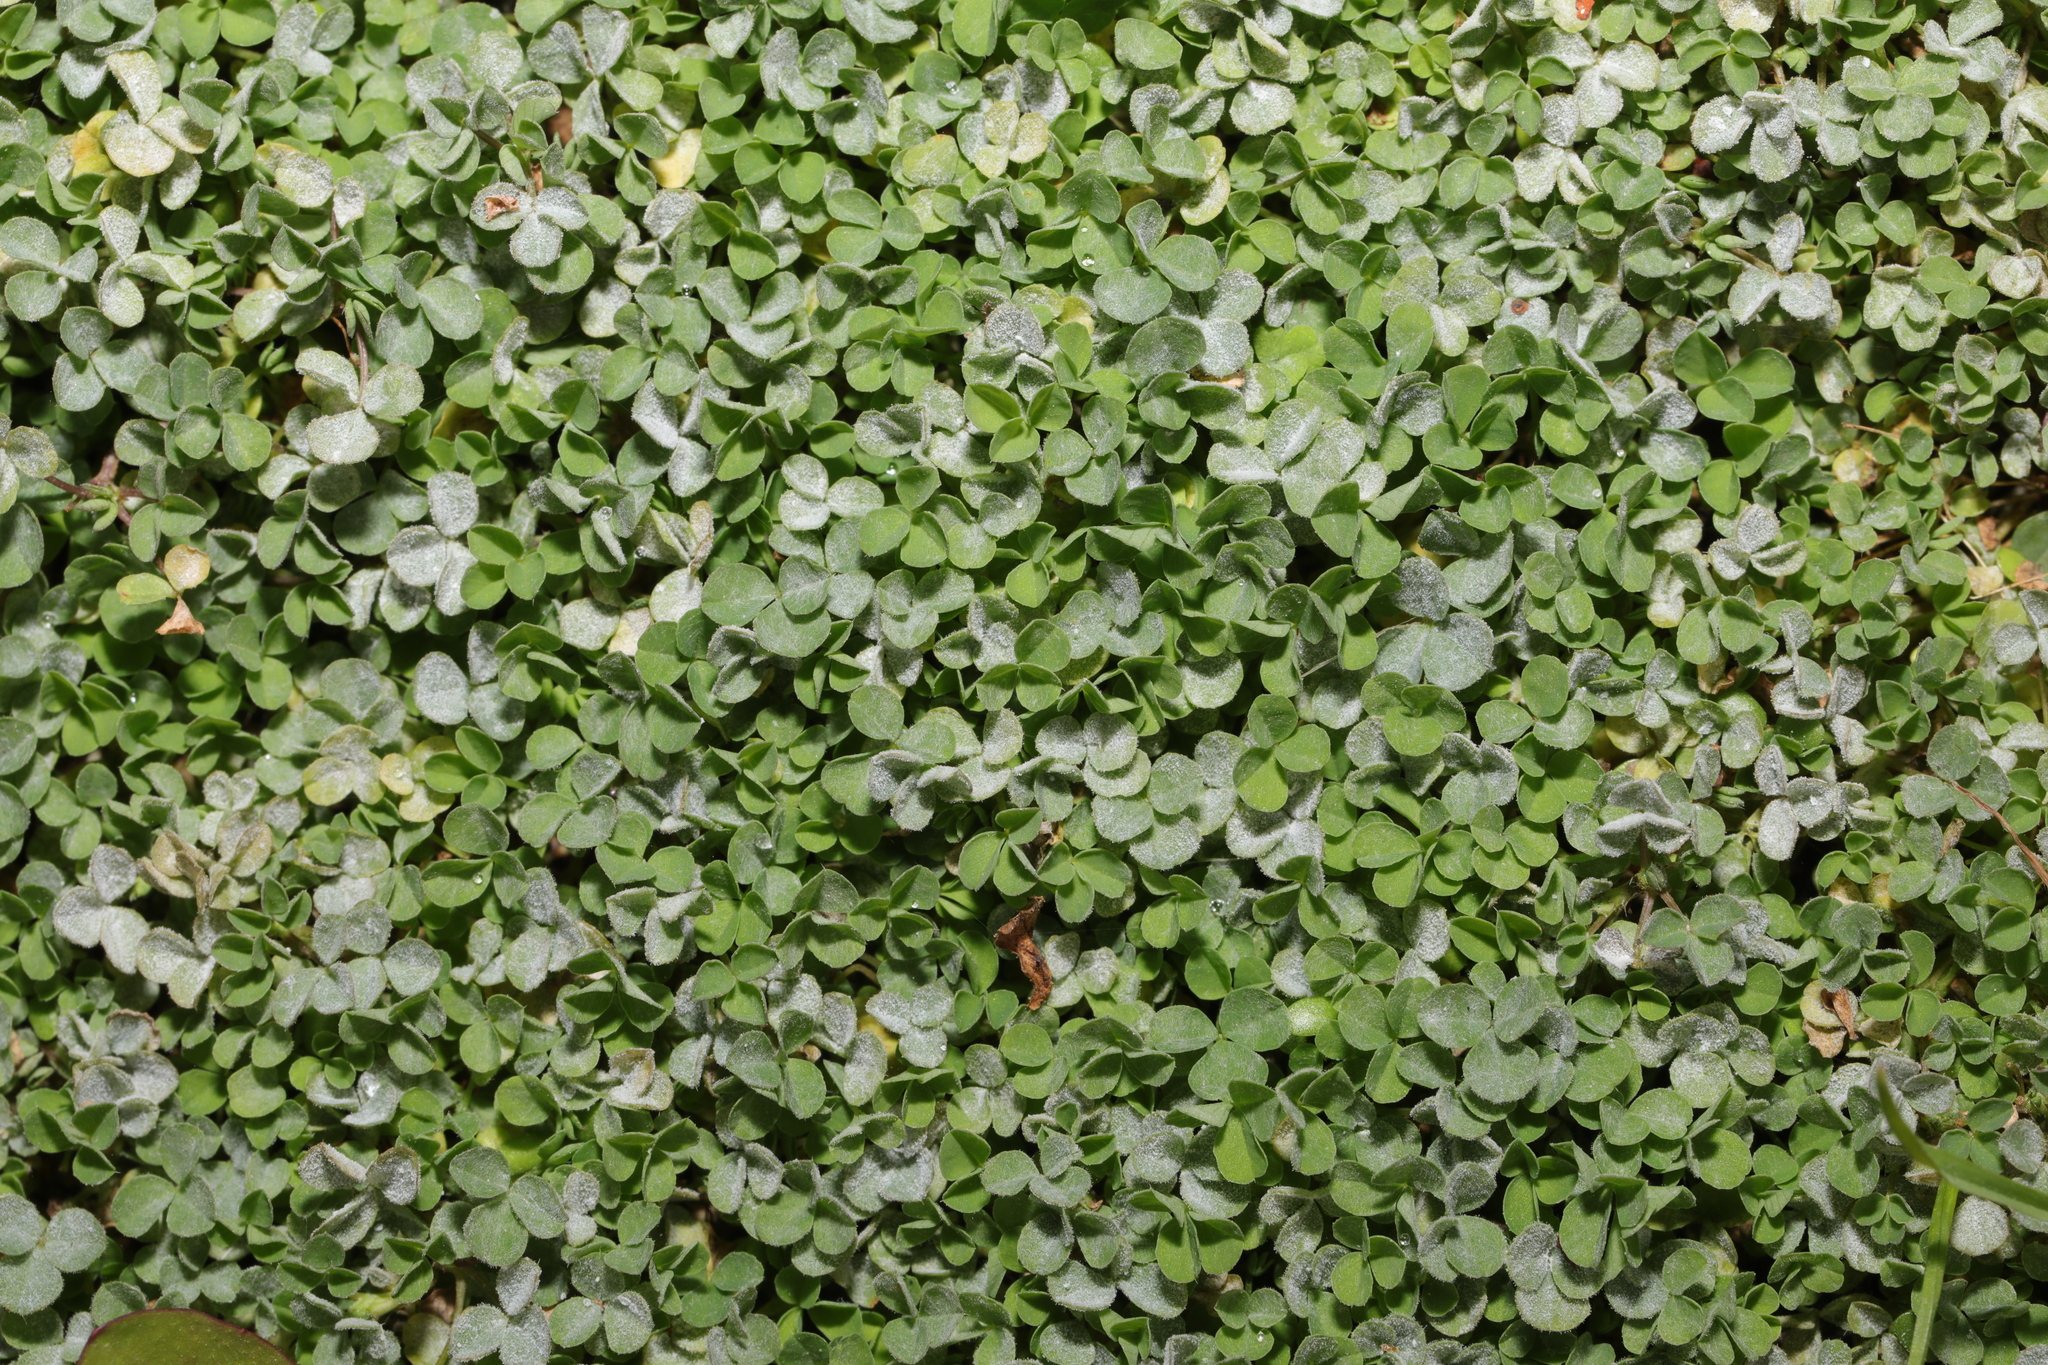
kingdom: Plantae
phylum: Tracheophyta
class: Magnoliopsida
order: Fabales
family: Fabaceae
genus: Trifolium
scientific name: Trifolium repens
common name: White clover
